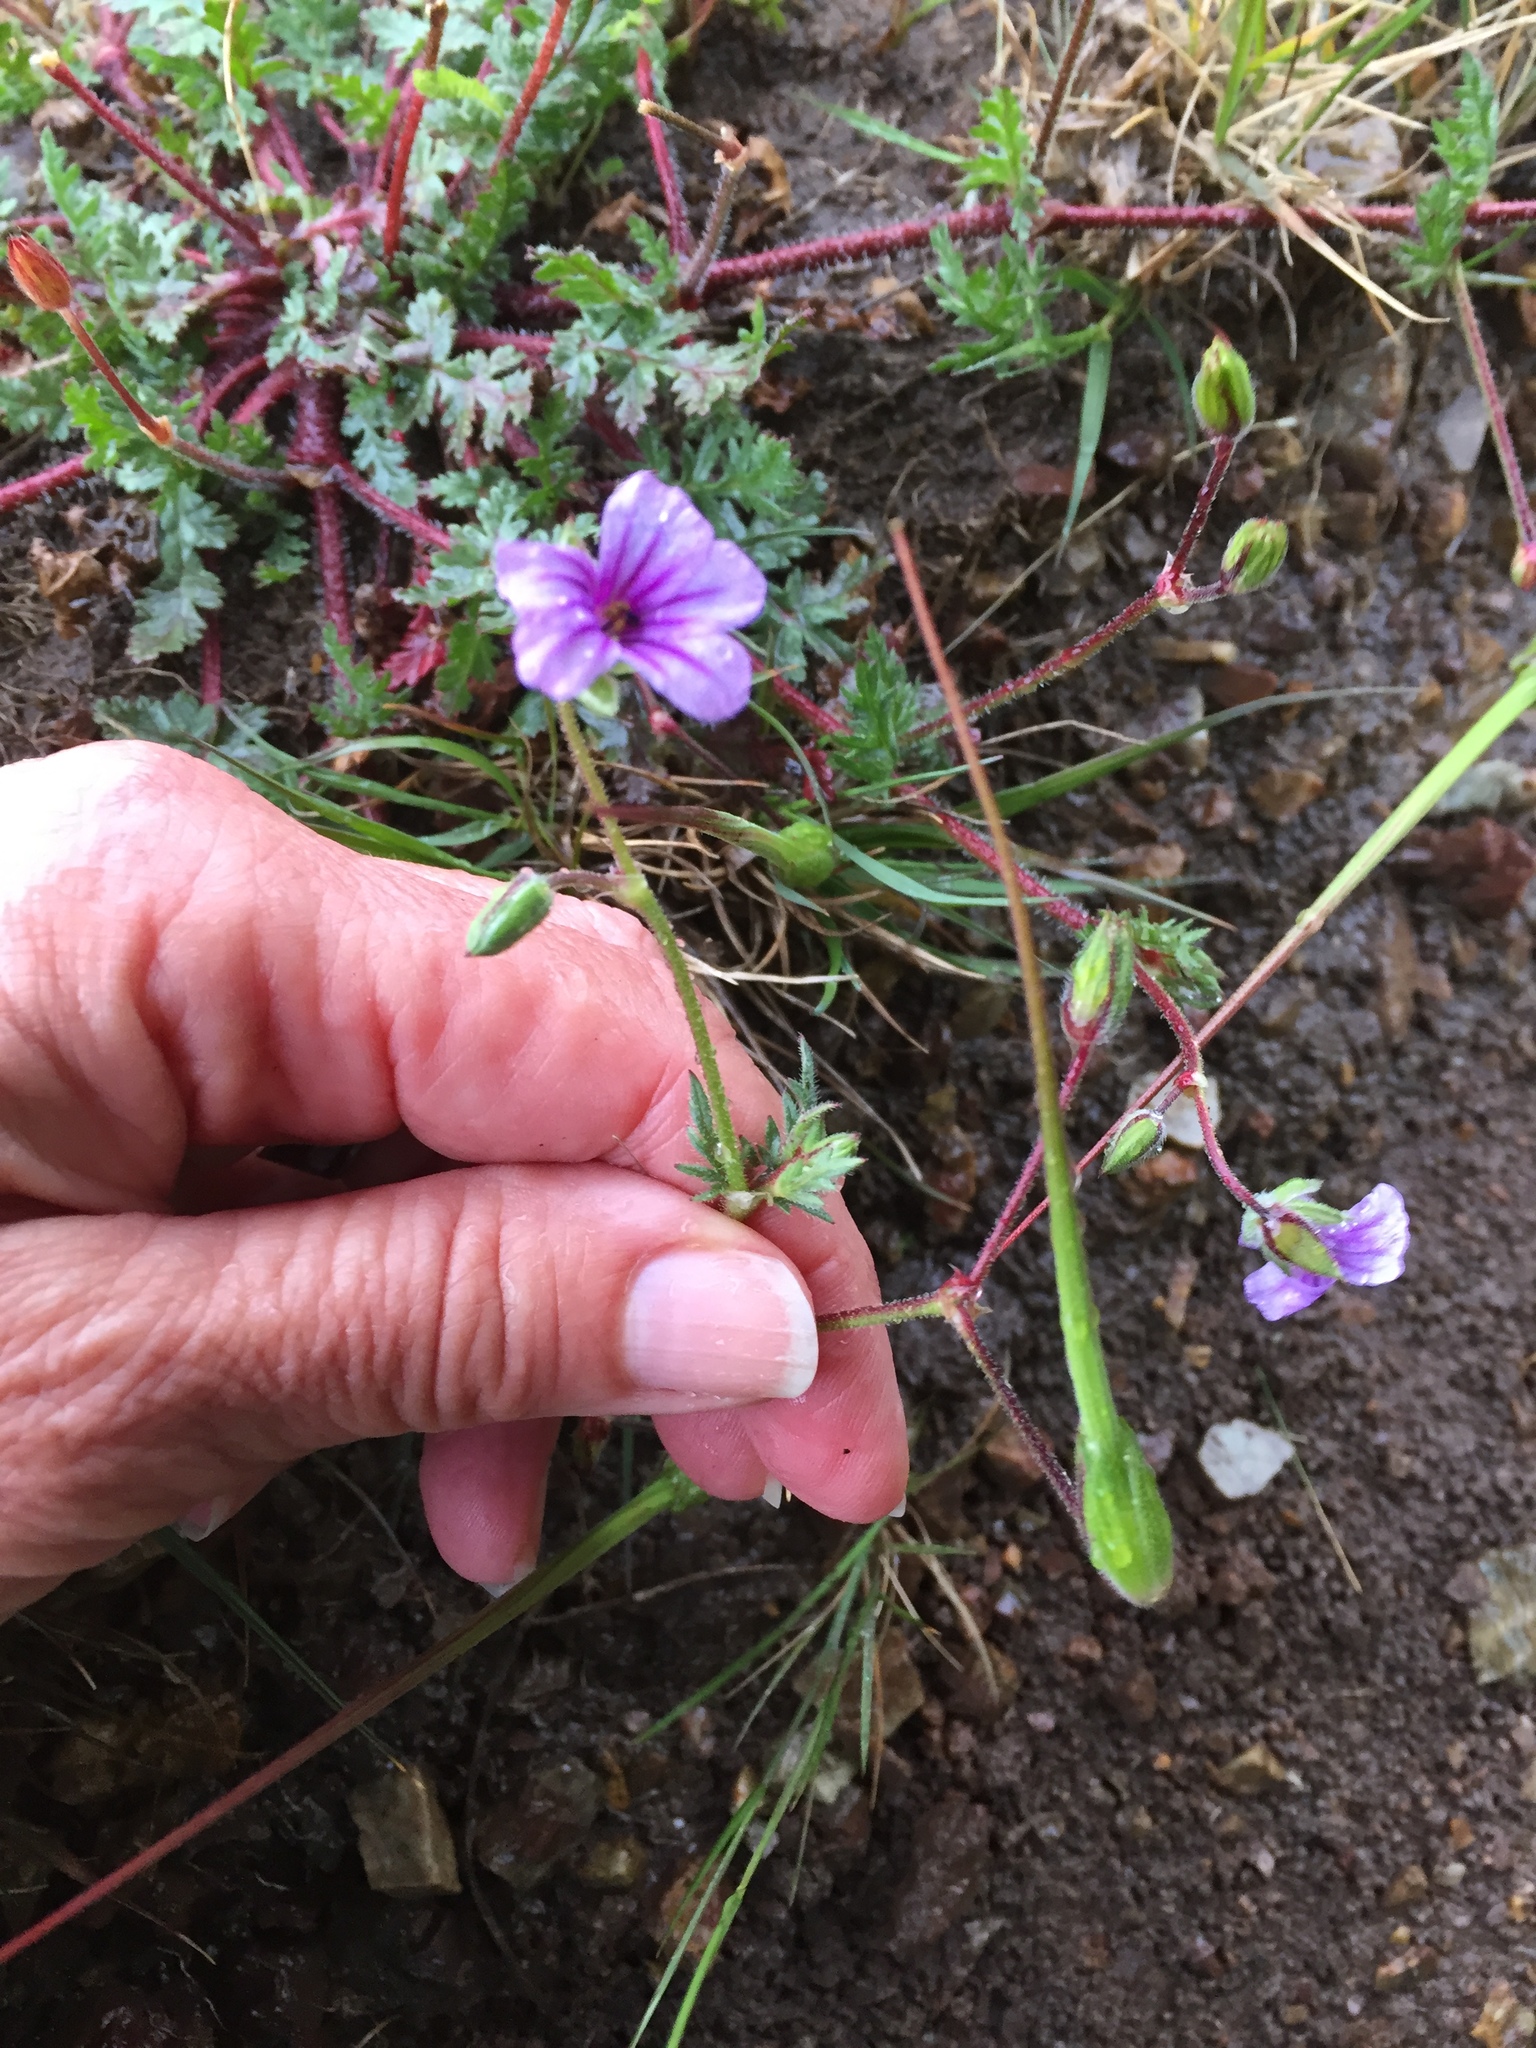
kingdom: Plantae
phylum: Tracheophyta
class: Magnoliopsida
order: Geraniales
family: Geraniaceae
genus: Erodium
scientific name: Erodium botrys
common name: Mediterranean stork's-bill
